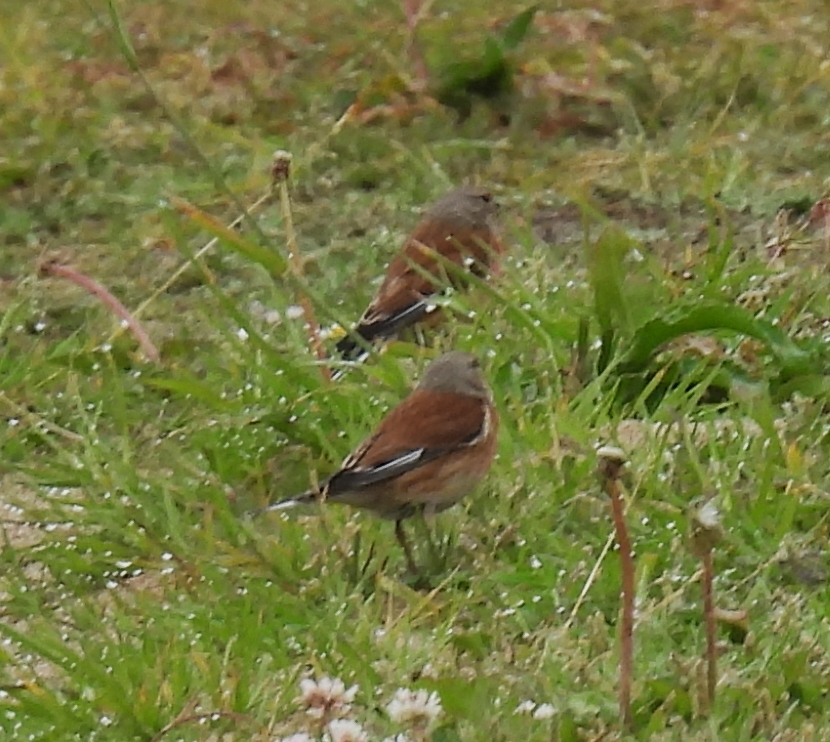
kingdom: Animalia
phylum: Chordata
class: Aves
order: Passeriformes
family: Fringillidae
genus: Linaria
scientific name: Linaria cannabina
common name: Common linnet
